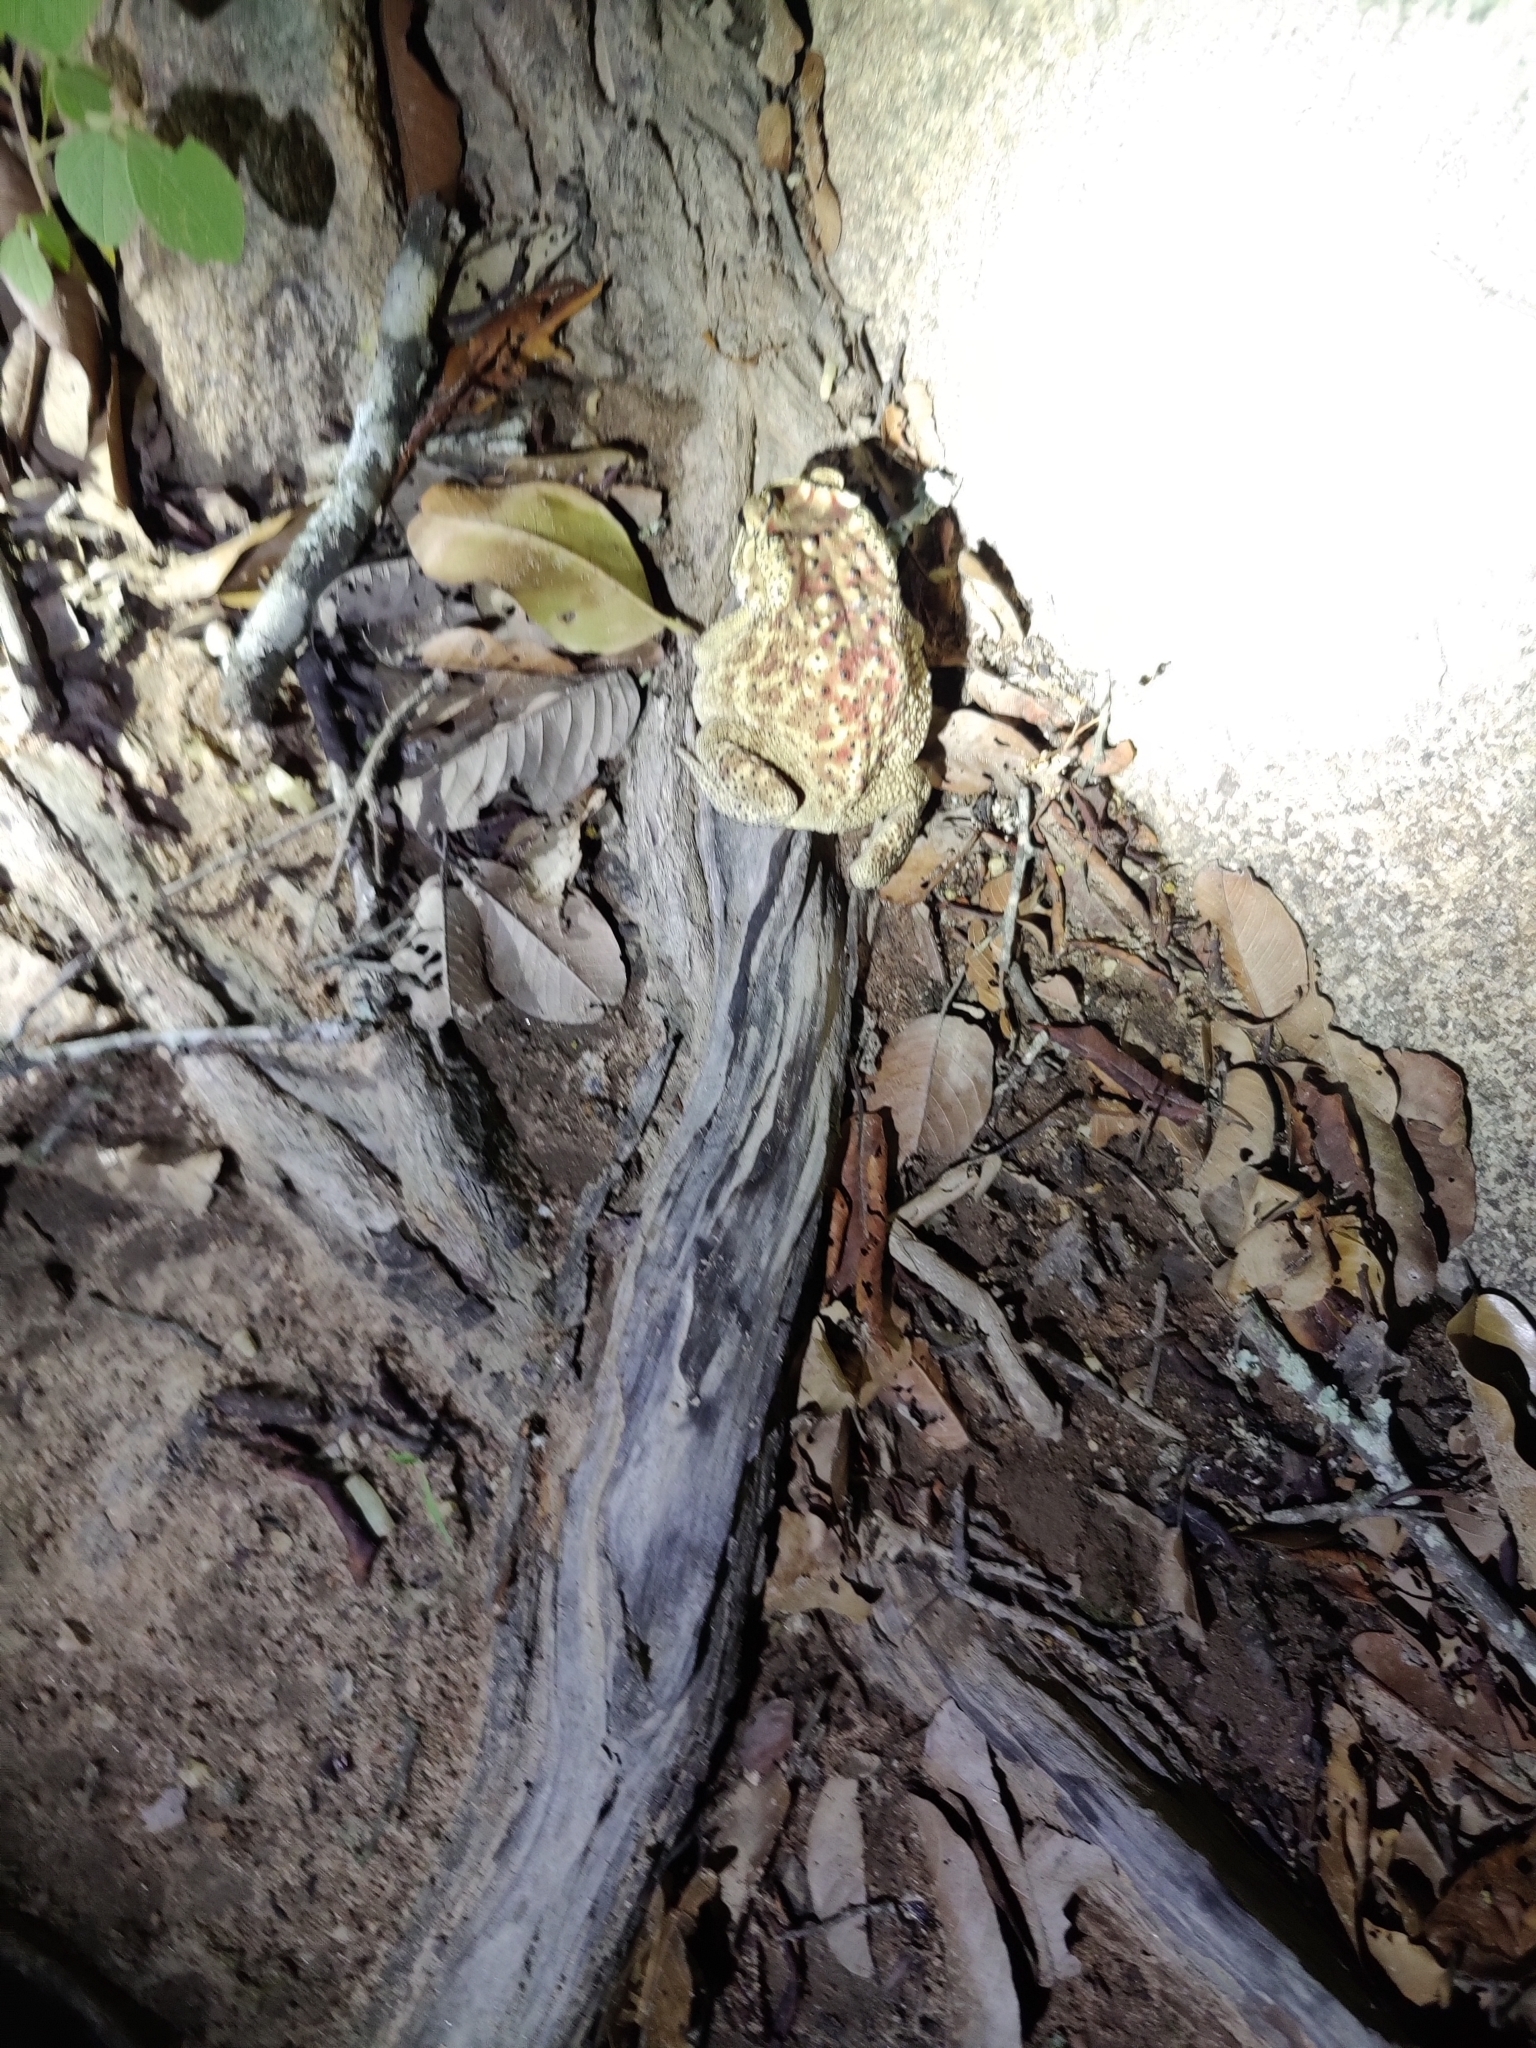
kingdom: Animalia
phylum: Chordata
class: Amphibia
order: Anura
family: Bufonidae
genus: Duttaphrynus
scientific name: Duttaphrynus melanostictus
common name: Common sunda toad
